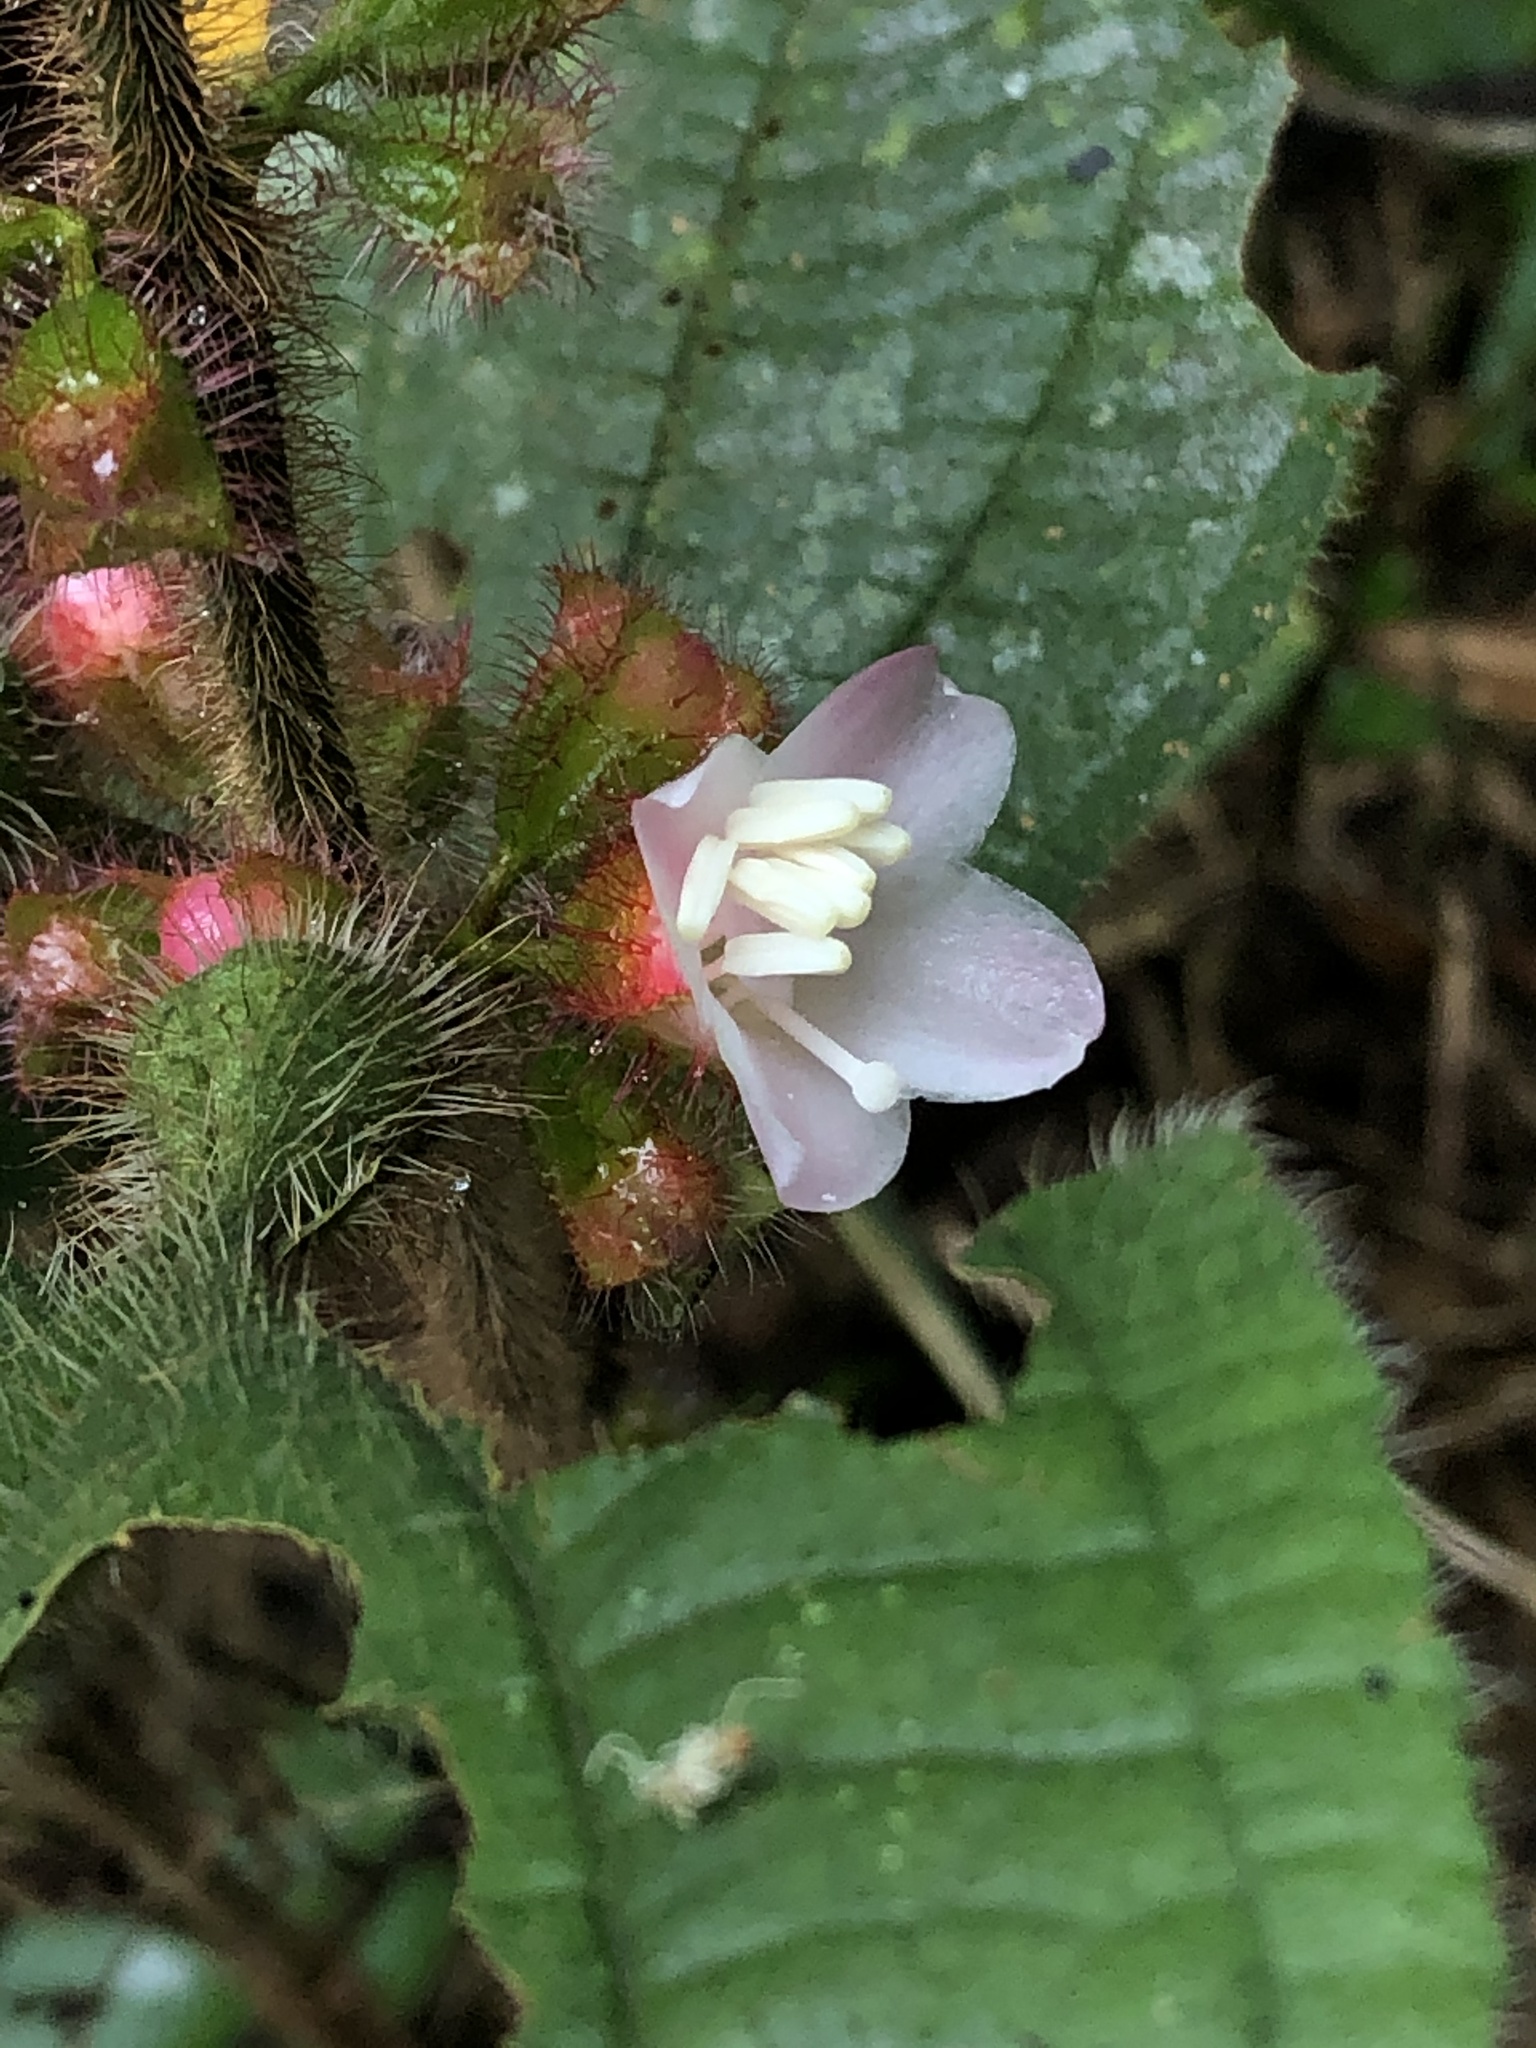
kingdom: Plantae
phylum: Tracheophyta
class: Magnoliopsida
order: Myrtales
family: Melastomataceae
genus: Miconia
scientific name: Miconia microphysca
